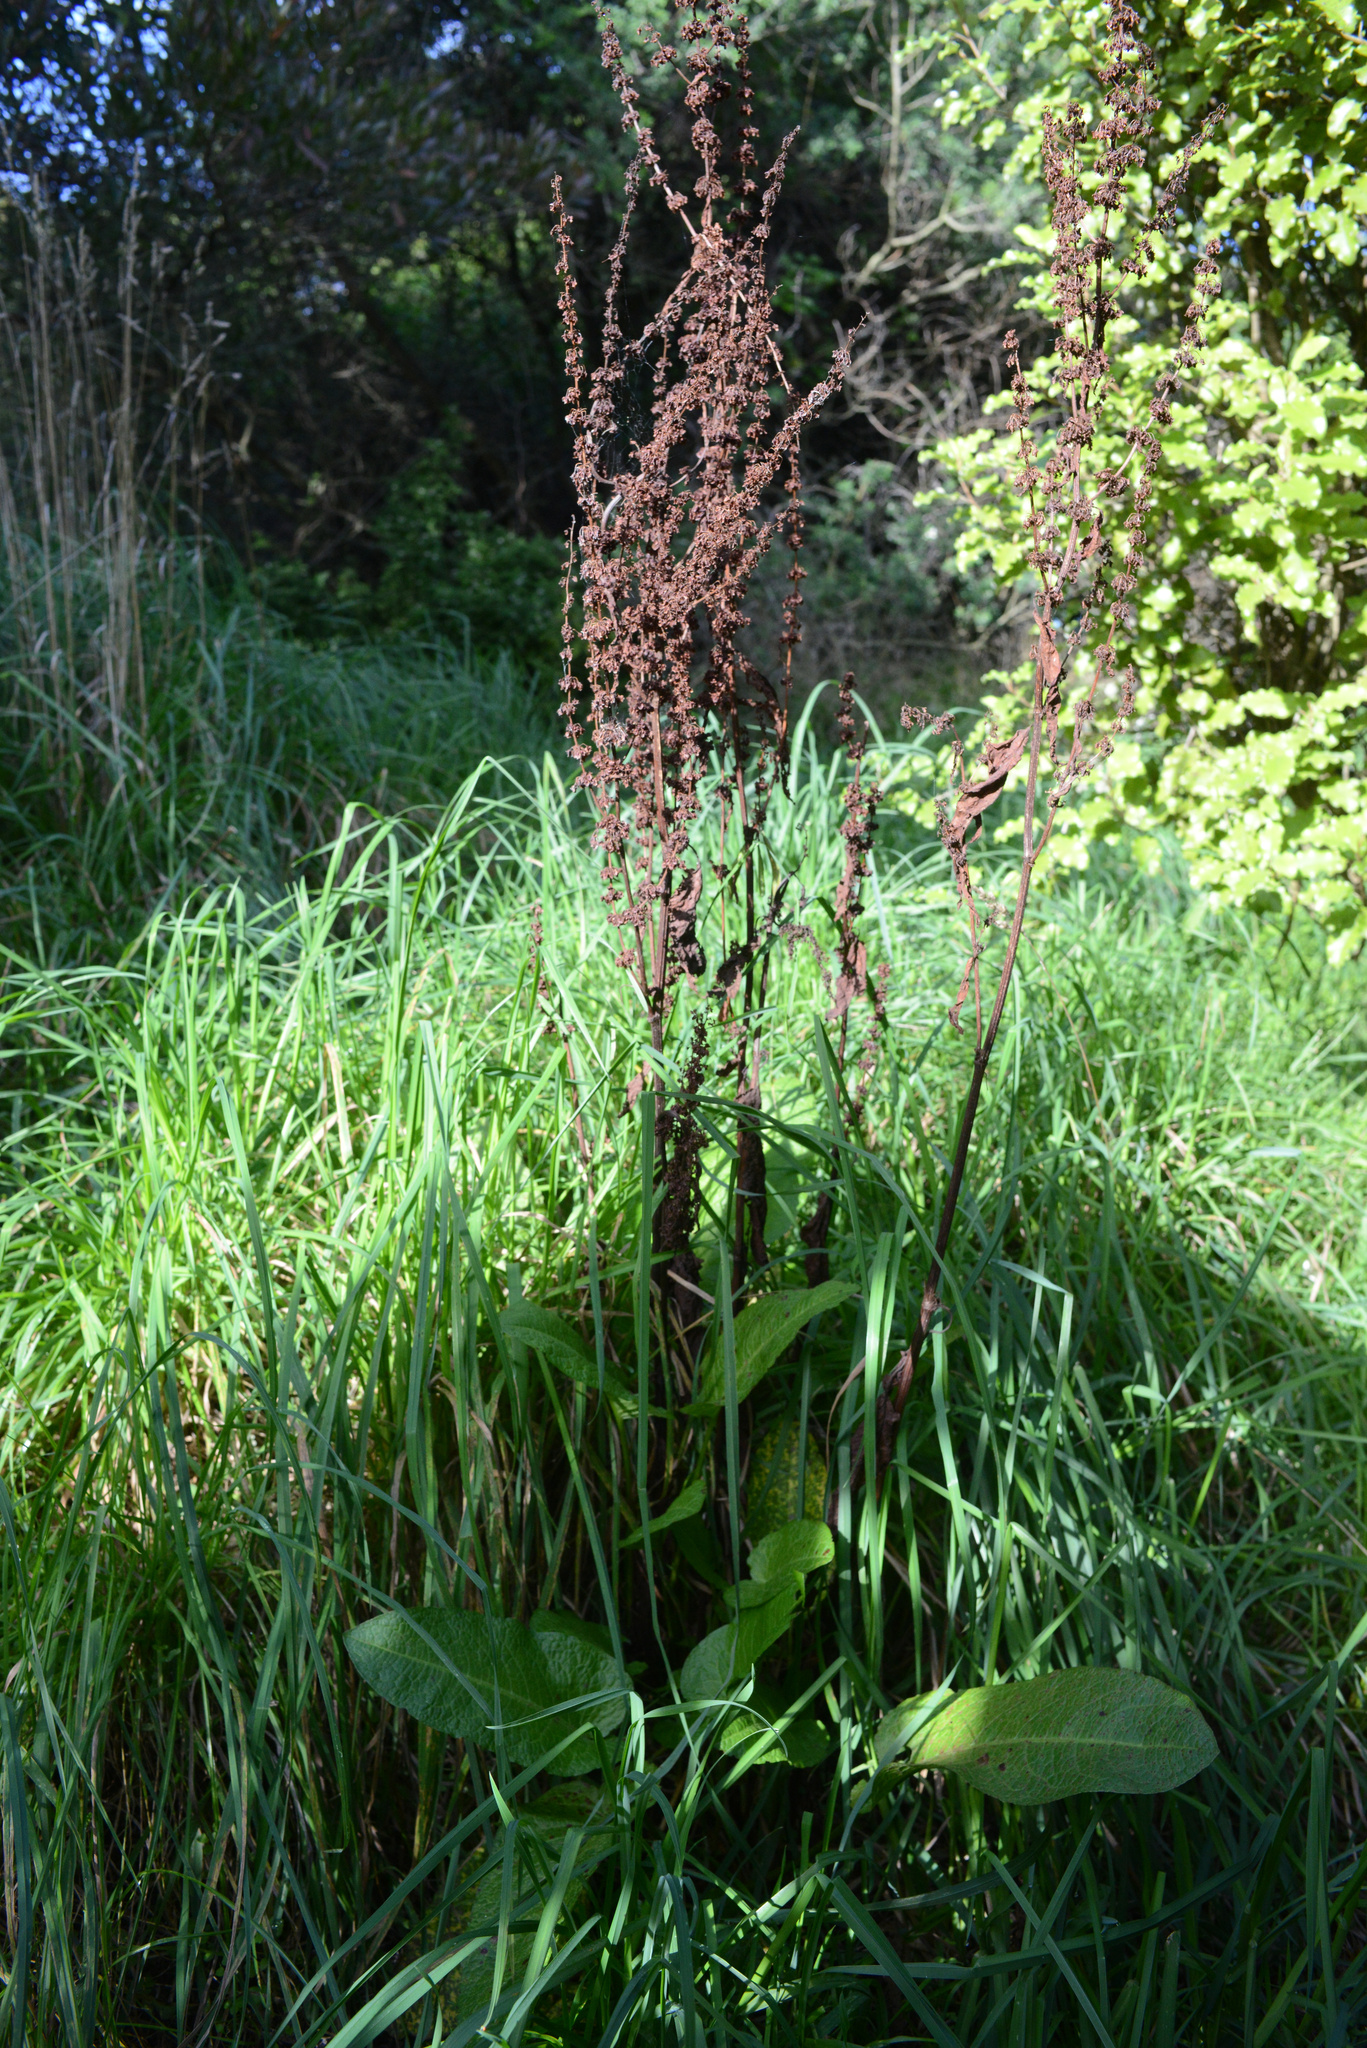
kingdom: Plantae
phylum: Tracheophyta
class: Magnoliopsida
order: Caryophyllales
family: Polygonaceae
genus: Rumex
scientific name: Rumex obtusifolius
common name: Bitter dock
